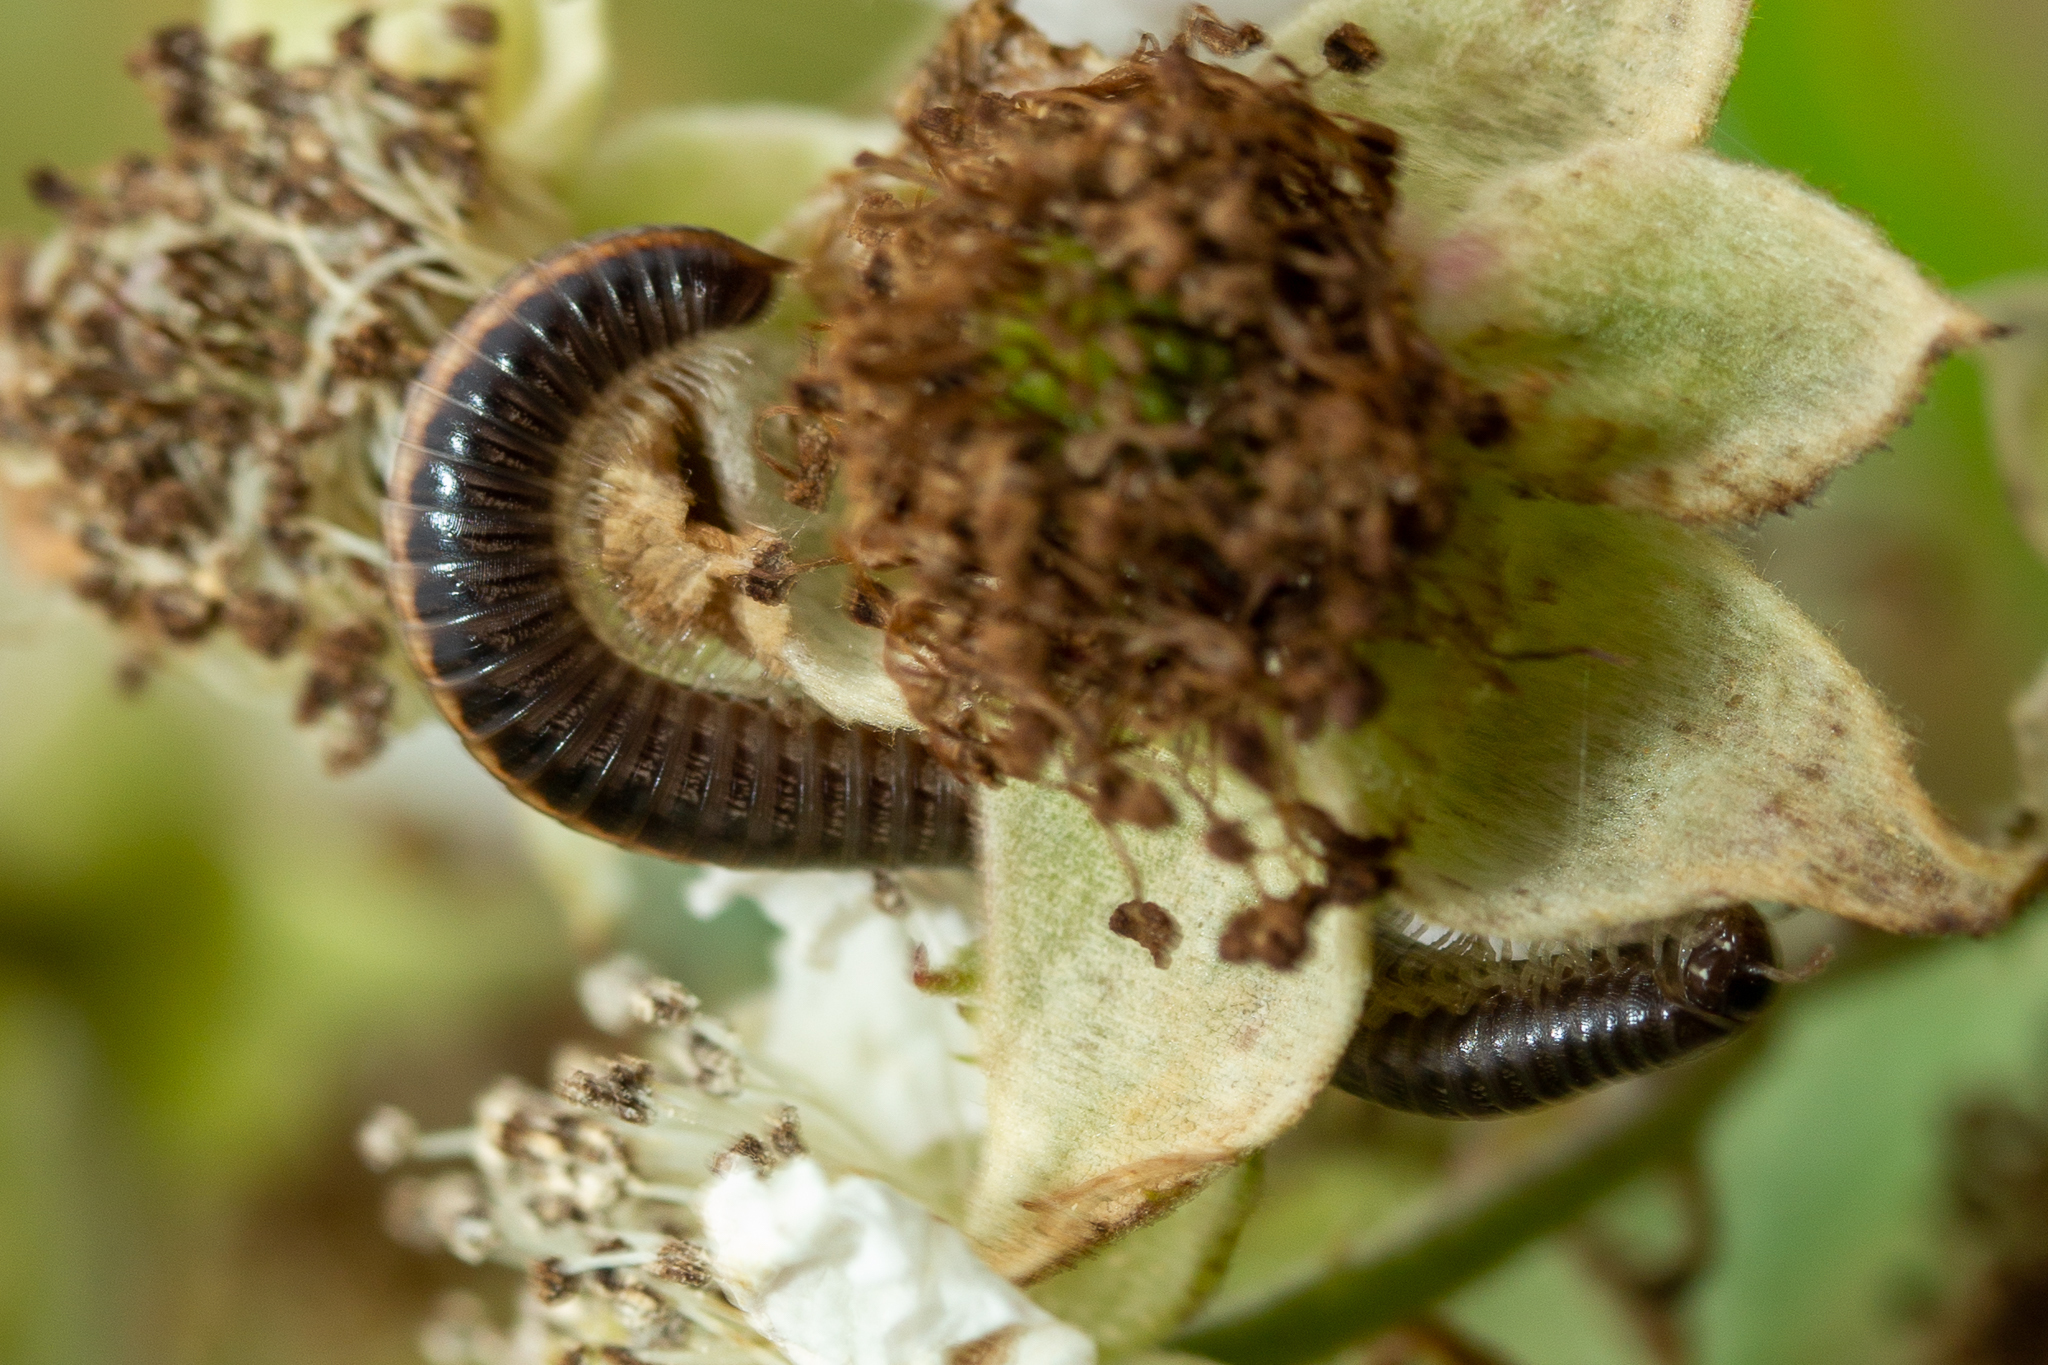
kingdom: Animalia
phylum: Arthropoda
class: Diplopoda
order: Julida
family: Julidae
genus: Ommatoiulus
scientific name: Ommatoiulus sabulosus
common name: Striped millipede
